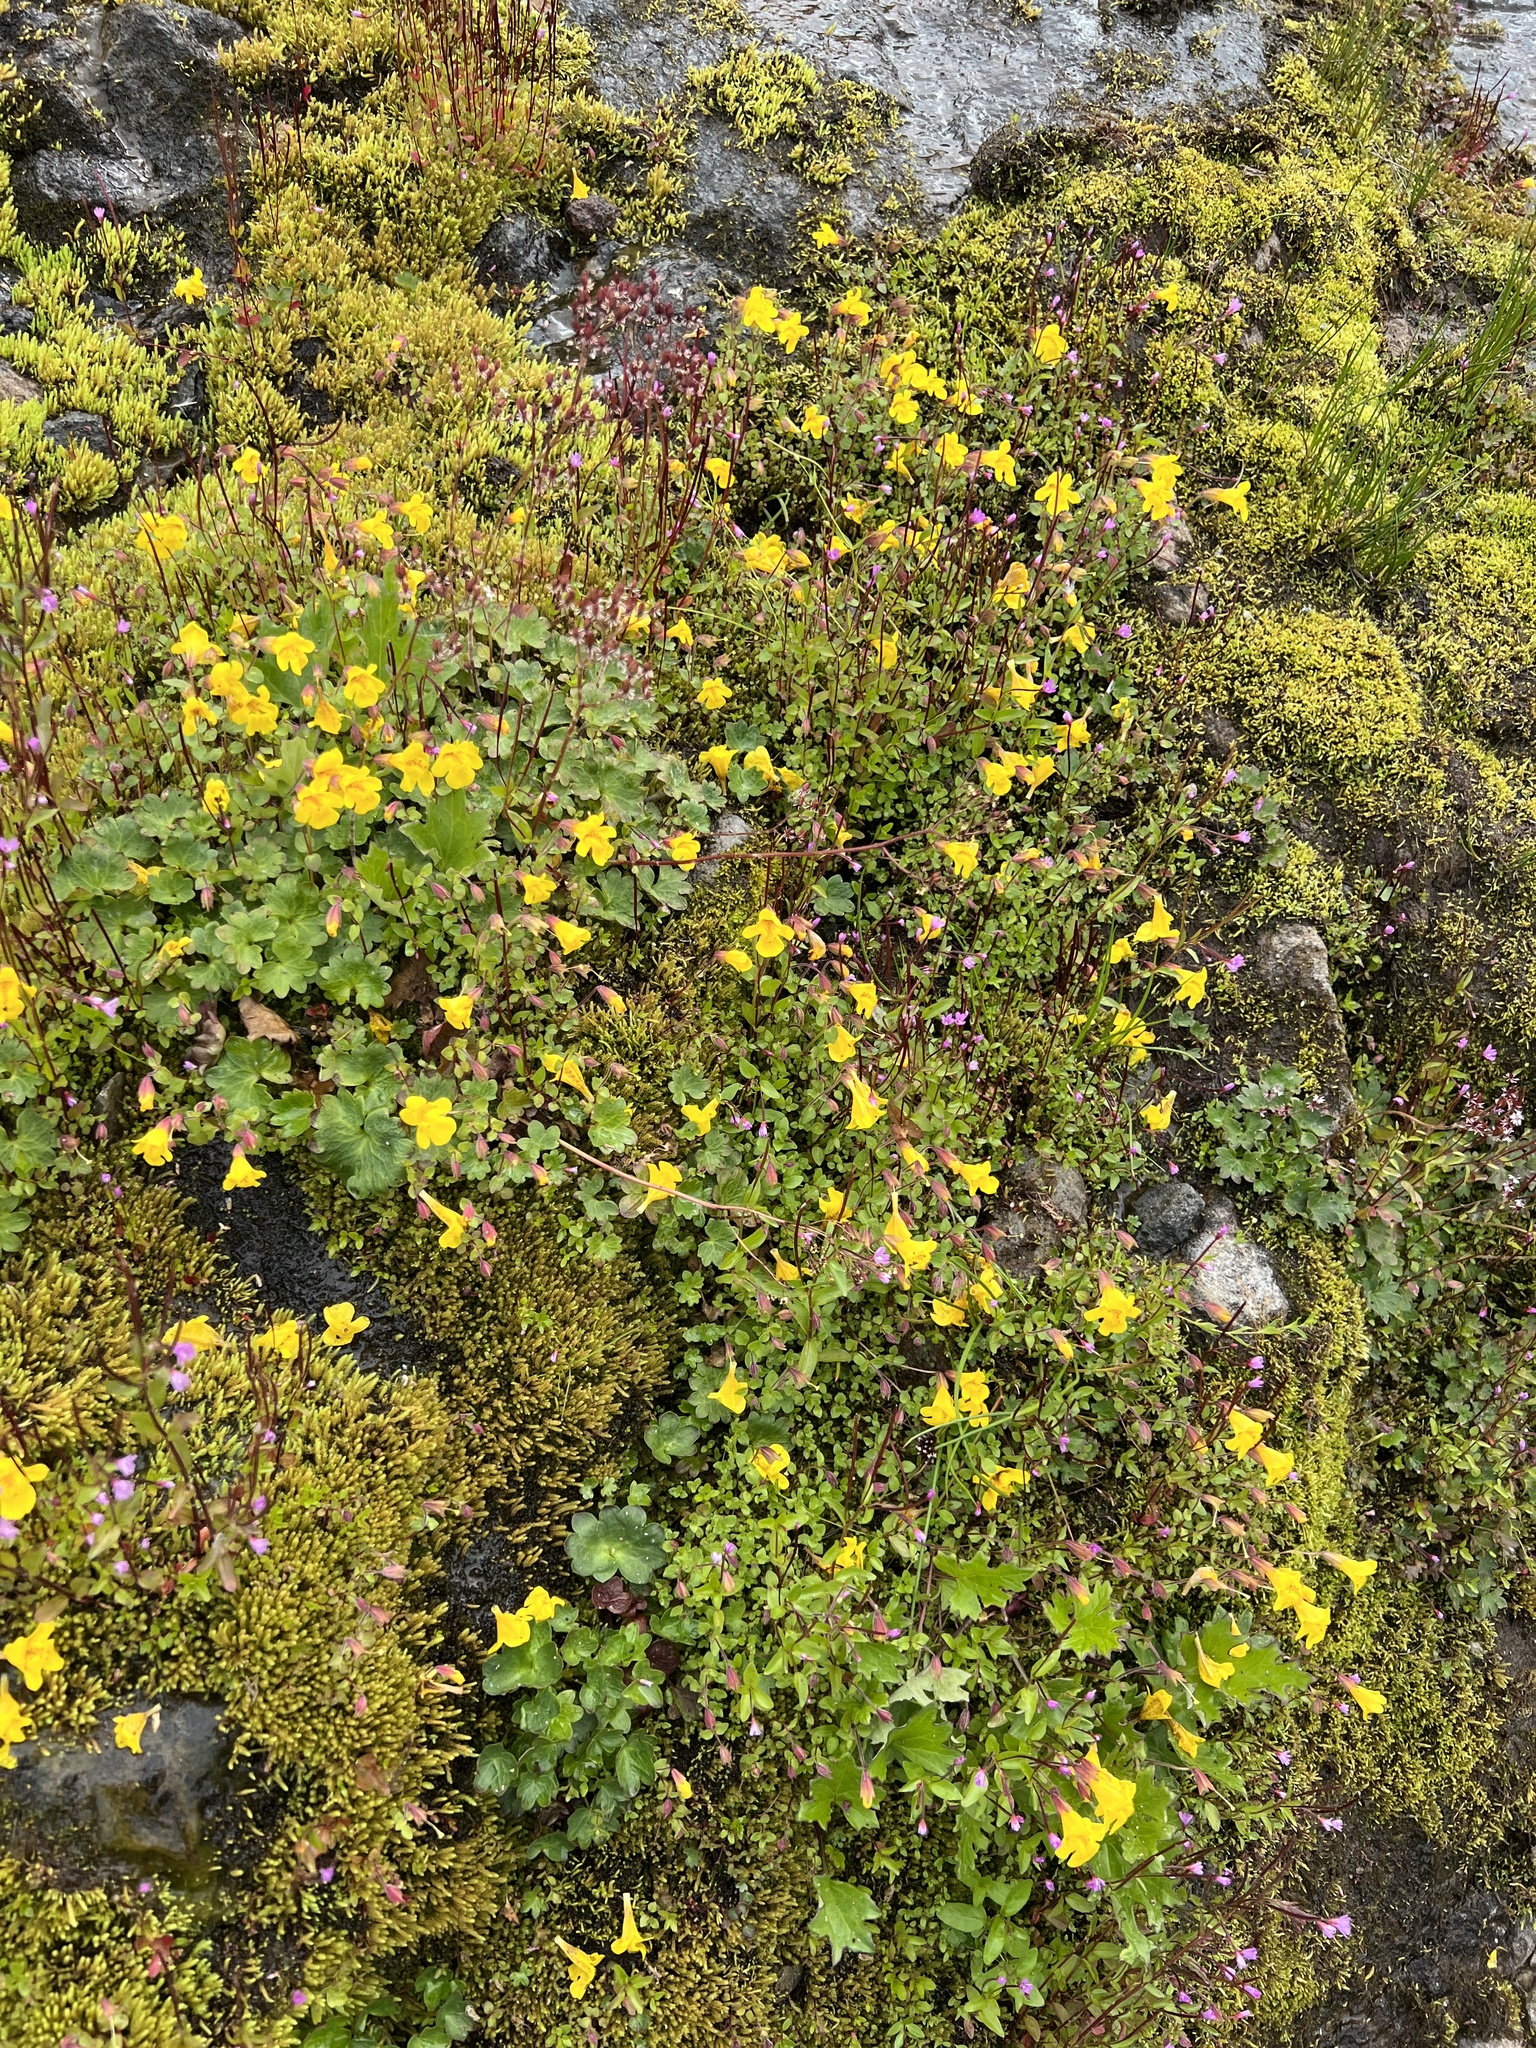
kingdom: Plantae
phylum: Tracheophyta
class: Magnoliopsida
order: Lamiales
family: Phrymaceae
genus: Erythranthe
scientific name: Erythranthe caespitosa
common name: Subalpine monkeyflower
